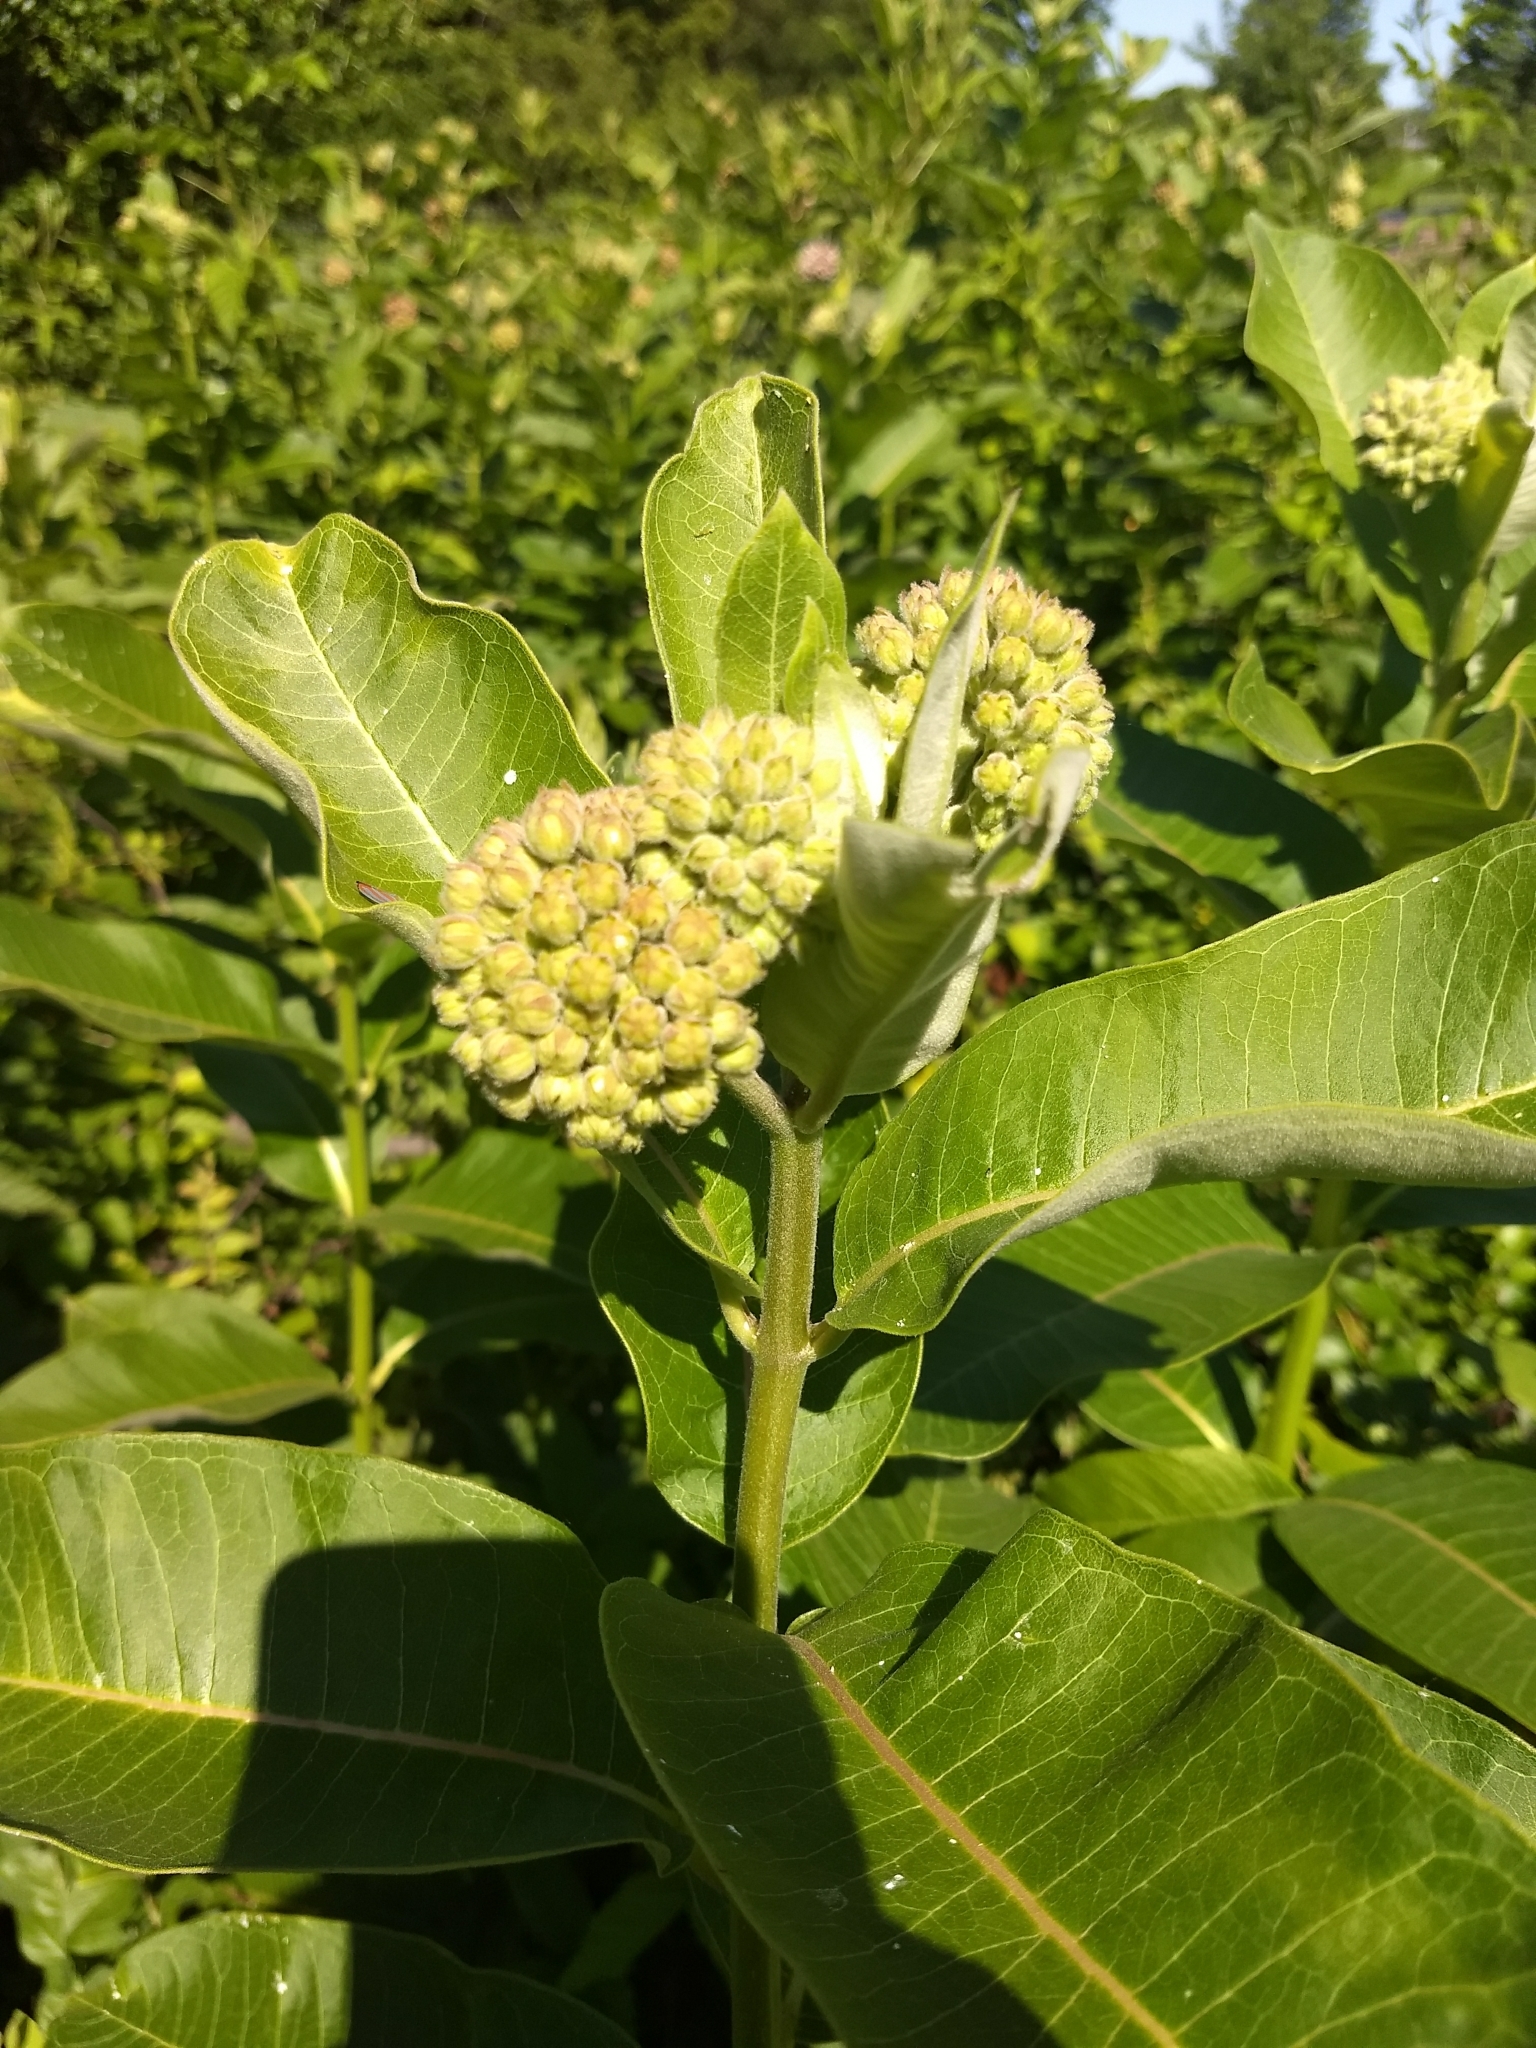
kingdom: Plantae
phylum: Tracheophyta
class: Magnoliopsida
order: Gentianales
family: Apocynaceae
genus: Asclepias
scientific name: Asclepias syriaca
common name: Common milkweed
